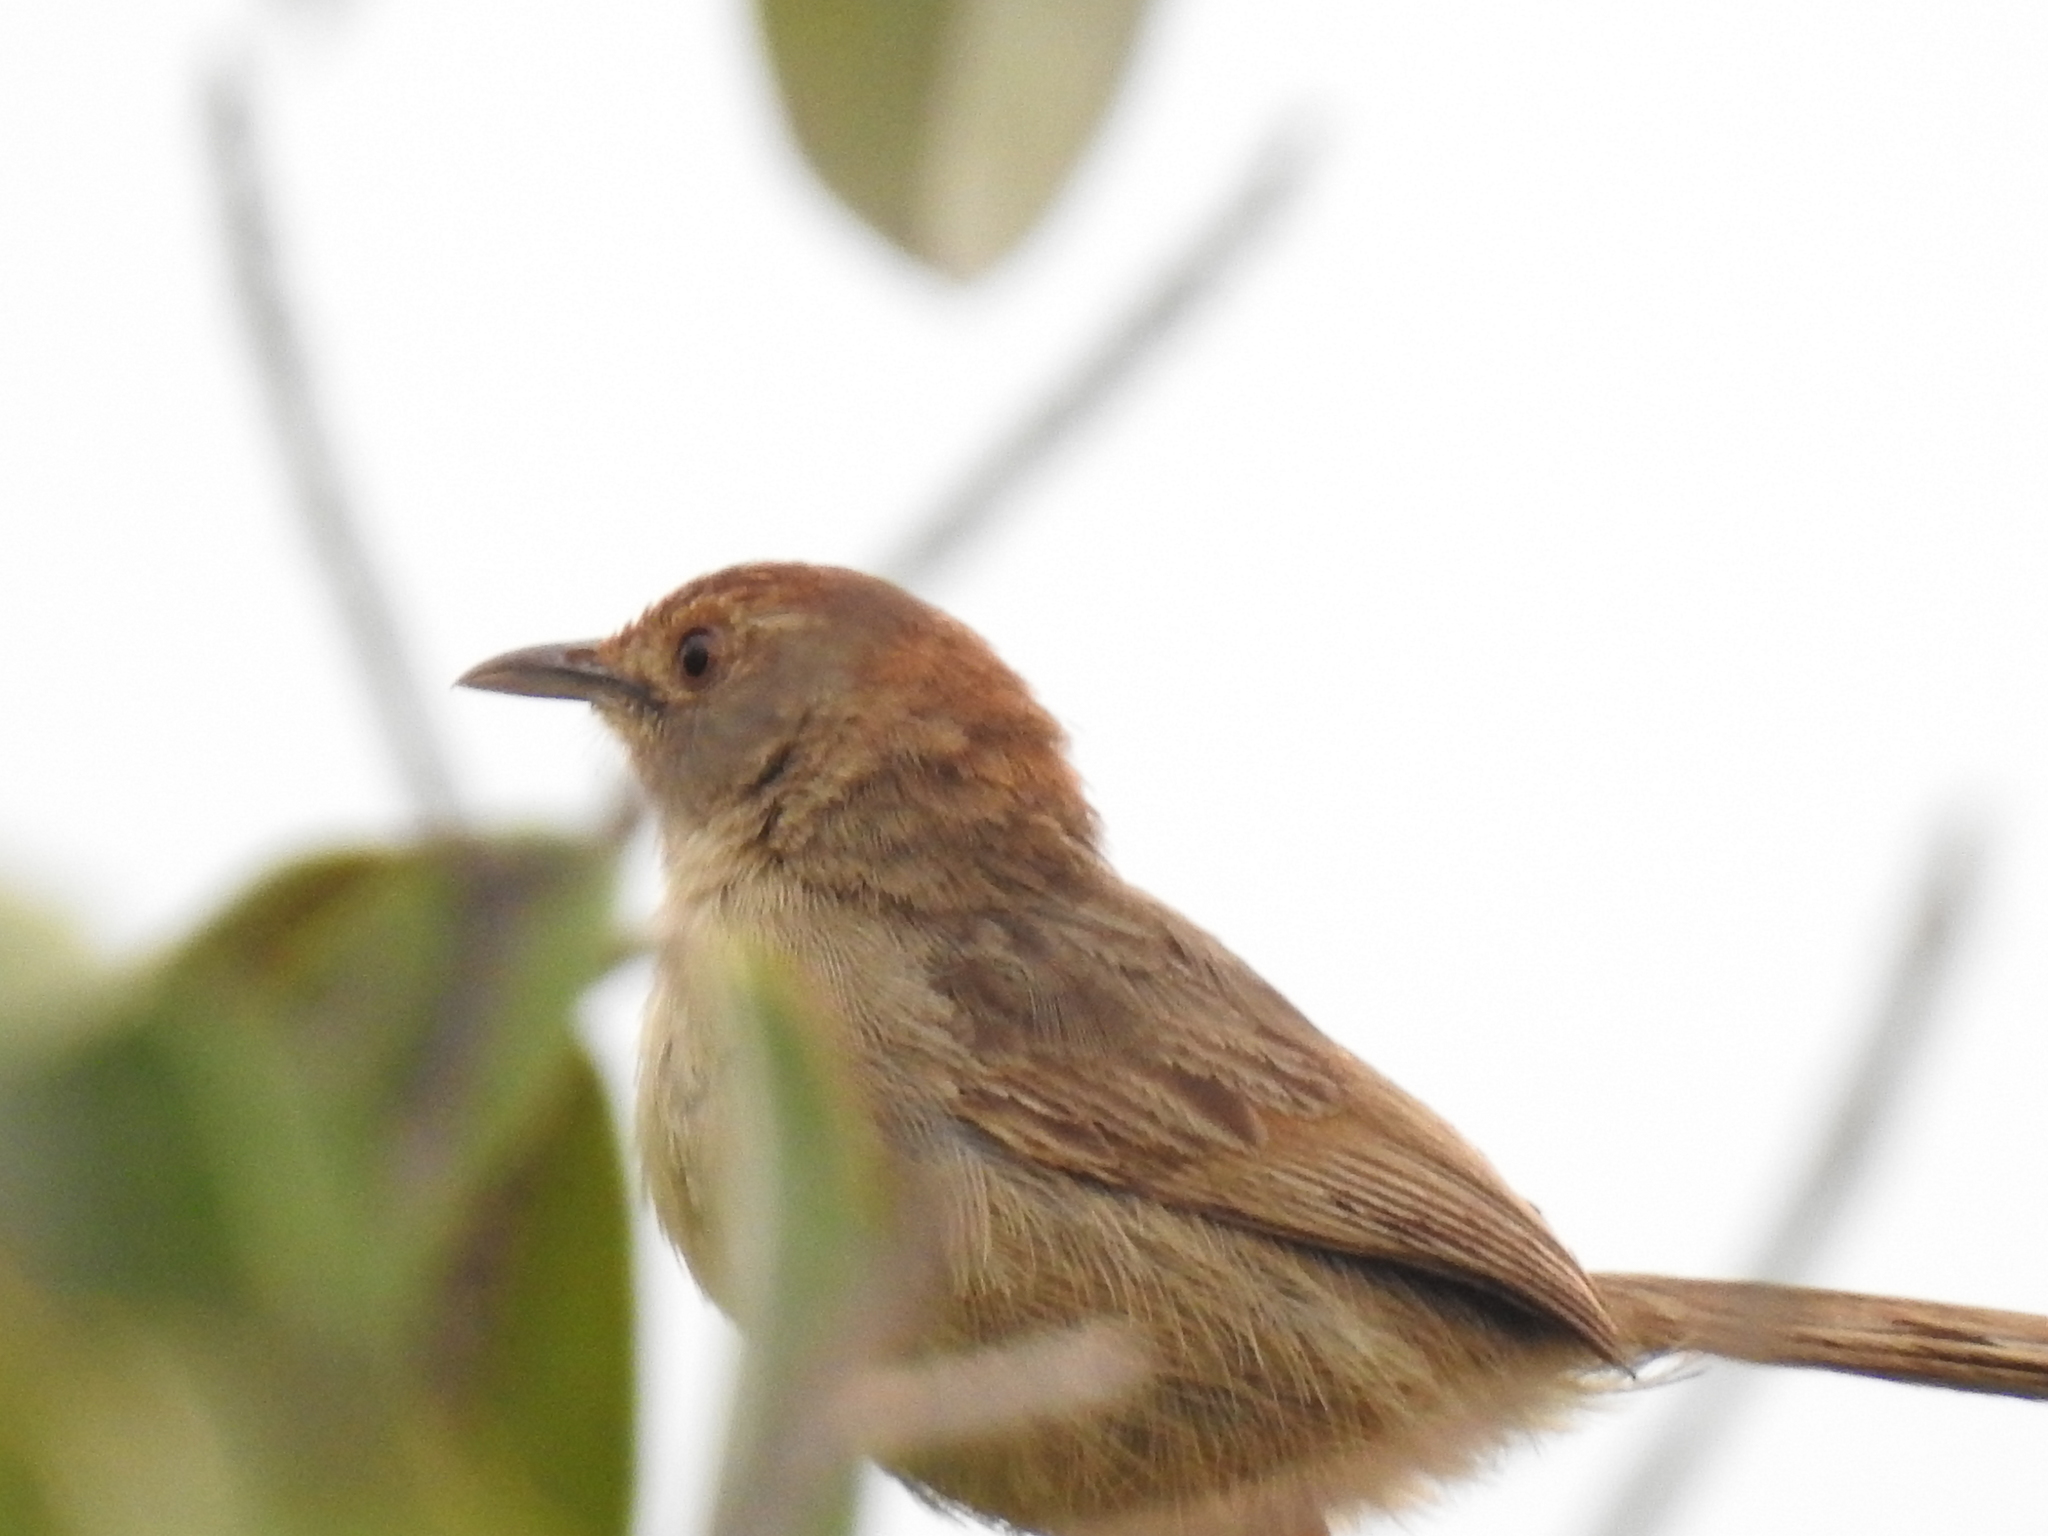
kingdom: Animalia
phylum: Chordata
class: Aves
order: Passeriformes
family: Cisticolidae
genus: Cisticola
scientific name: Cisticola aberrans
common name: Lazy cisticola
